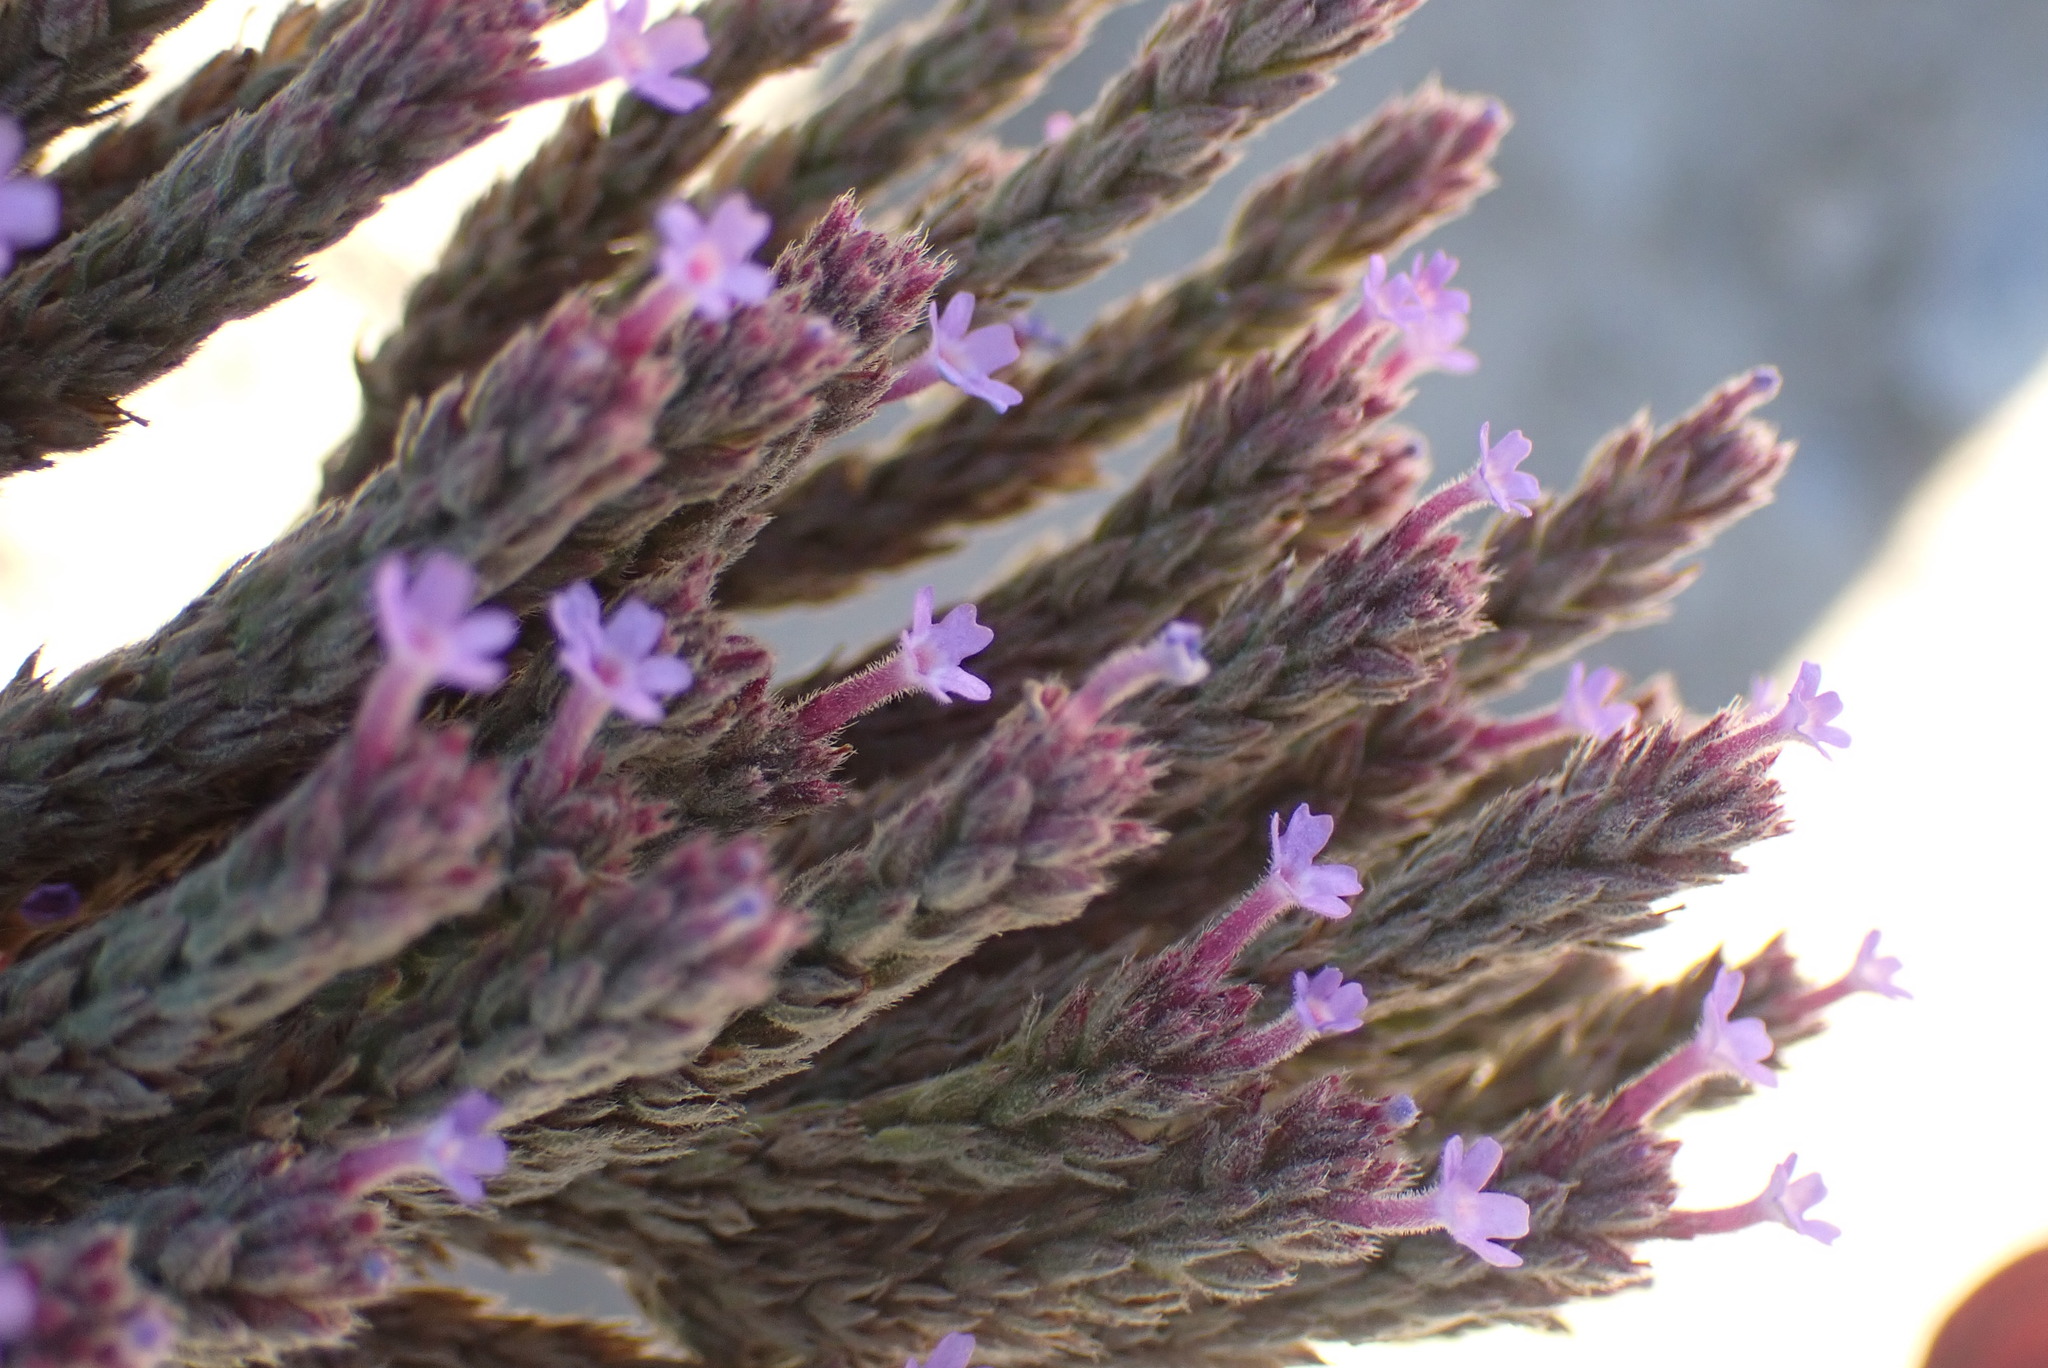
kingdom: Plantae
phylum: Tracheophyta
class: Magnoliopsida
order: Lamiales
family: Verbenaceae
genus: Verbena
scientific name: Verbena bonariensis
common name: Purpletop vervain
